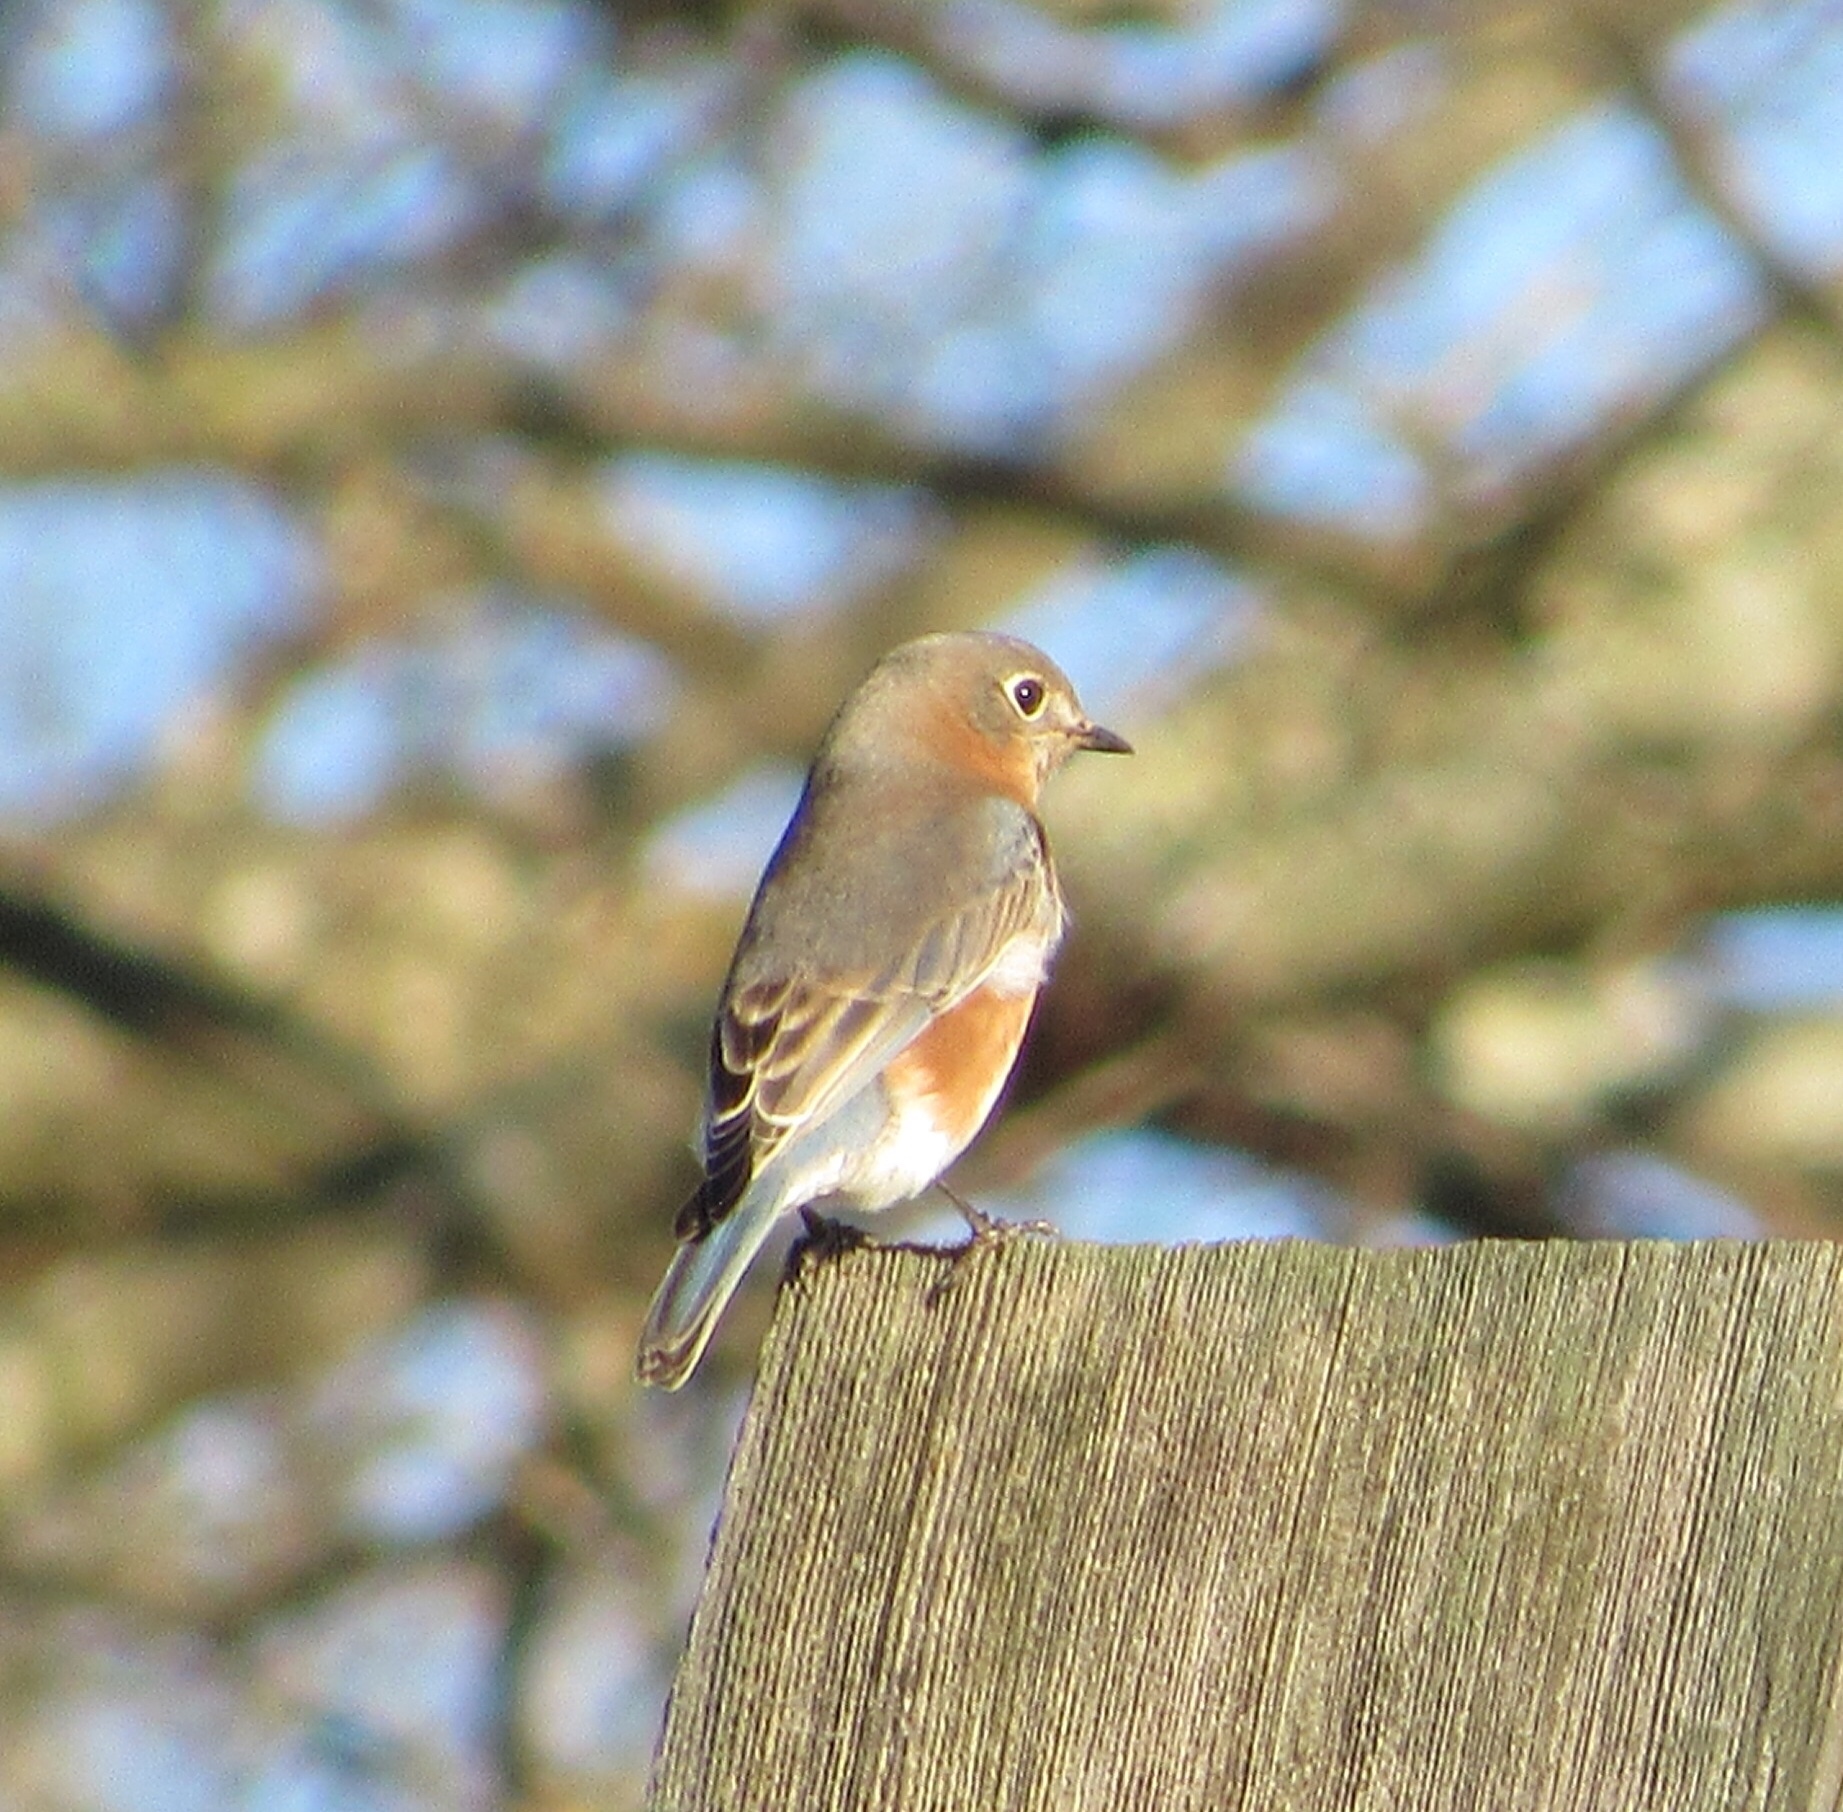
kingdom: Animalia
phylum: Chordata
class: Aves
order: Passeriformes
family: Turdidae
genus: Sialia
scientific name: Sialia sialis
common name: Eastern bluebird
